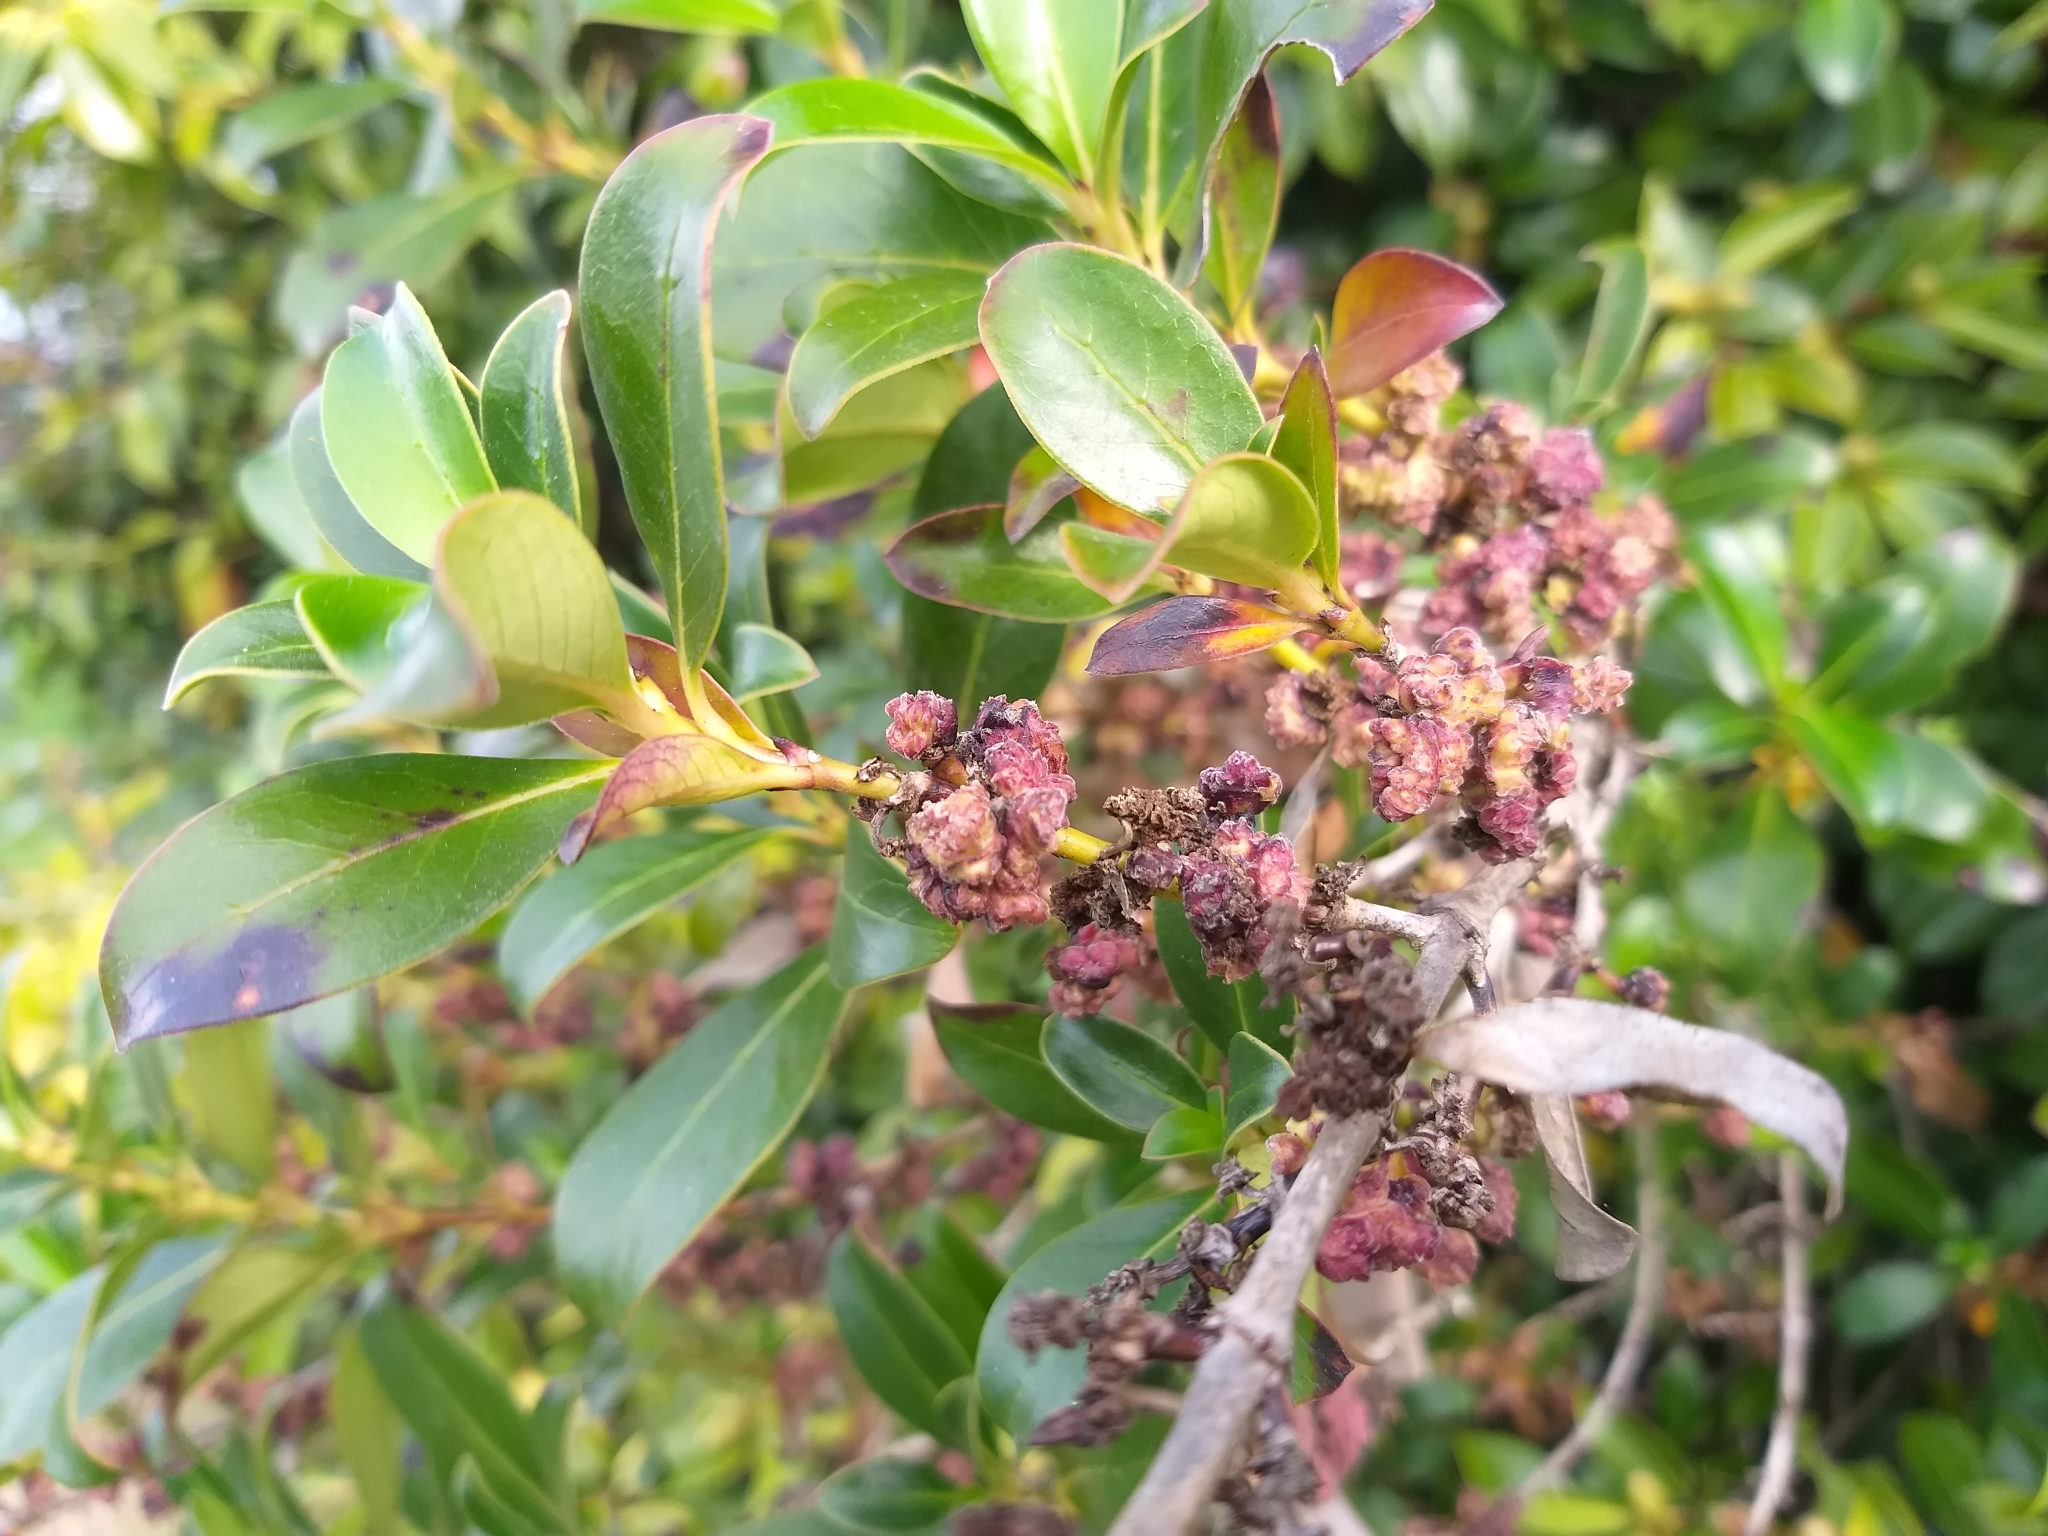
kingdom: Plantae
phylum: Tracheophyta
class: Magnoliopsida
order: Gentianales
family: Rubiaceae
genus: Coprosma
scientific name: Coprosma robusta
